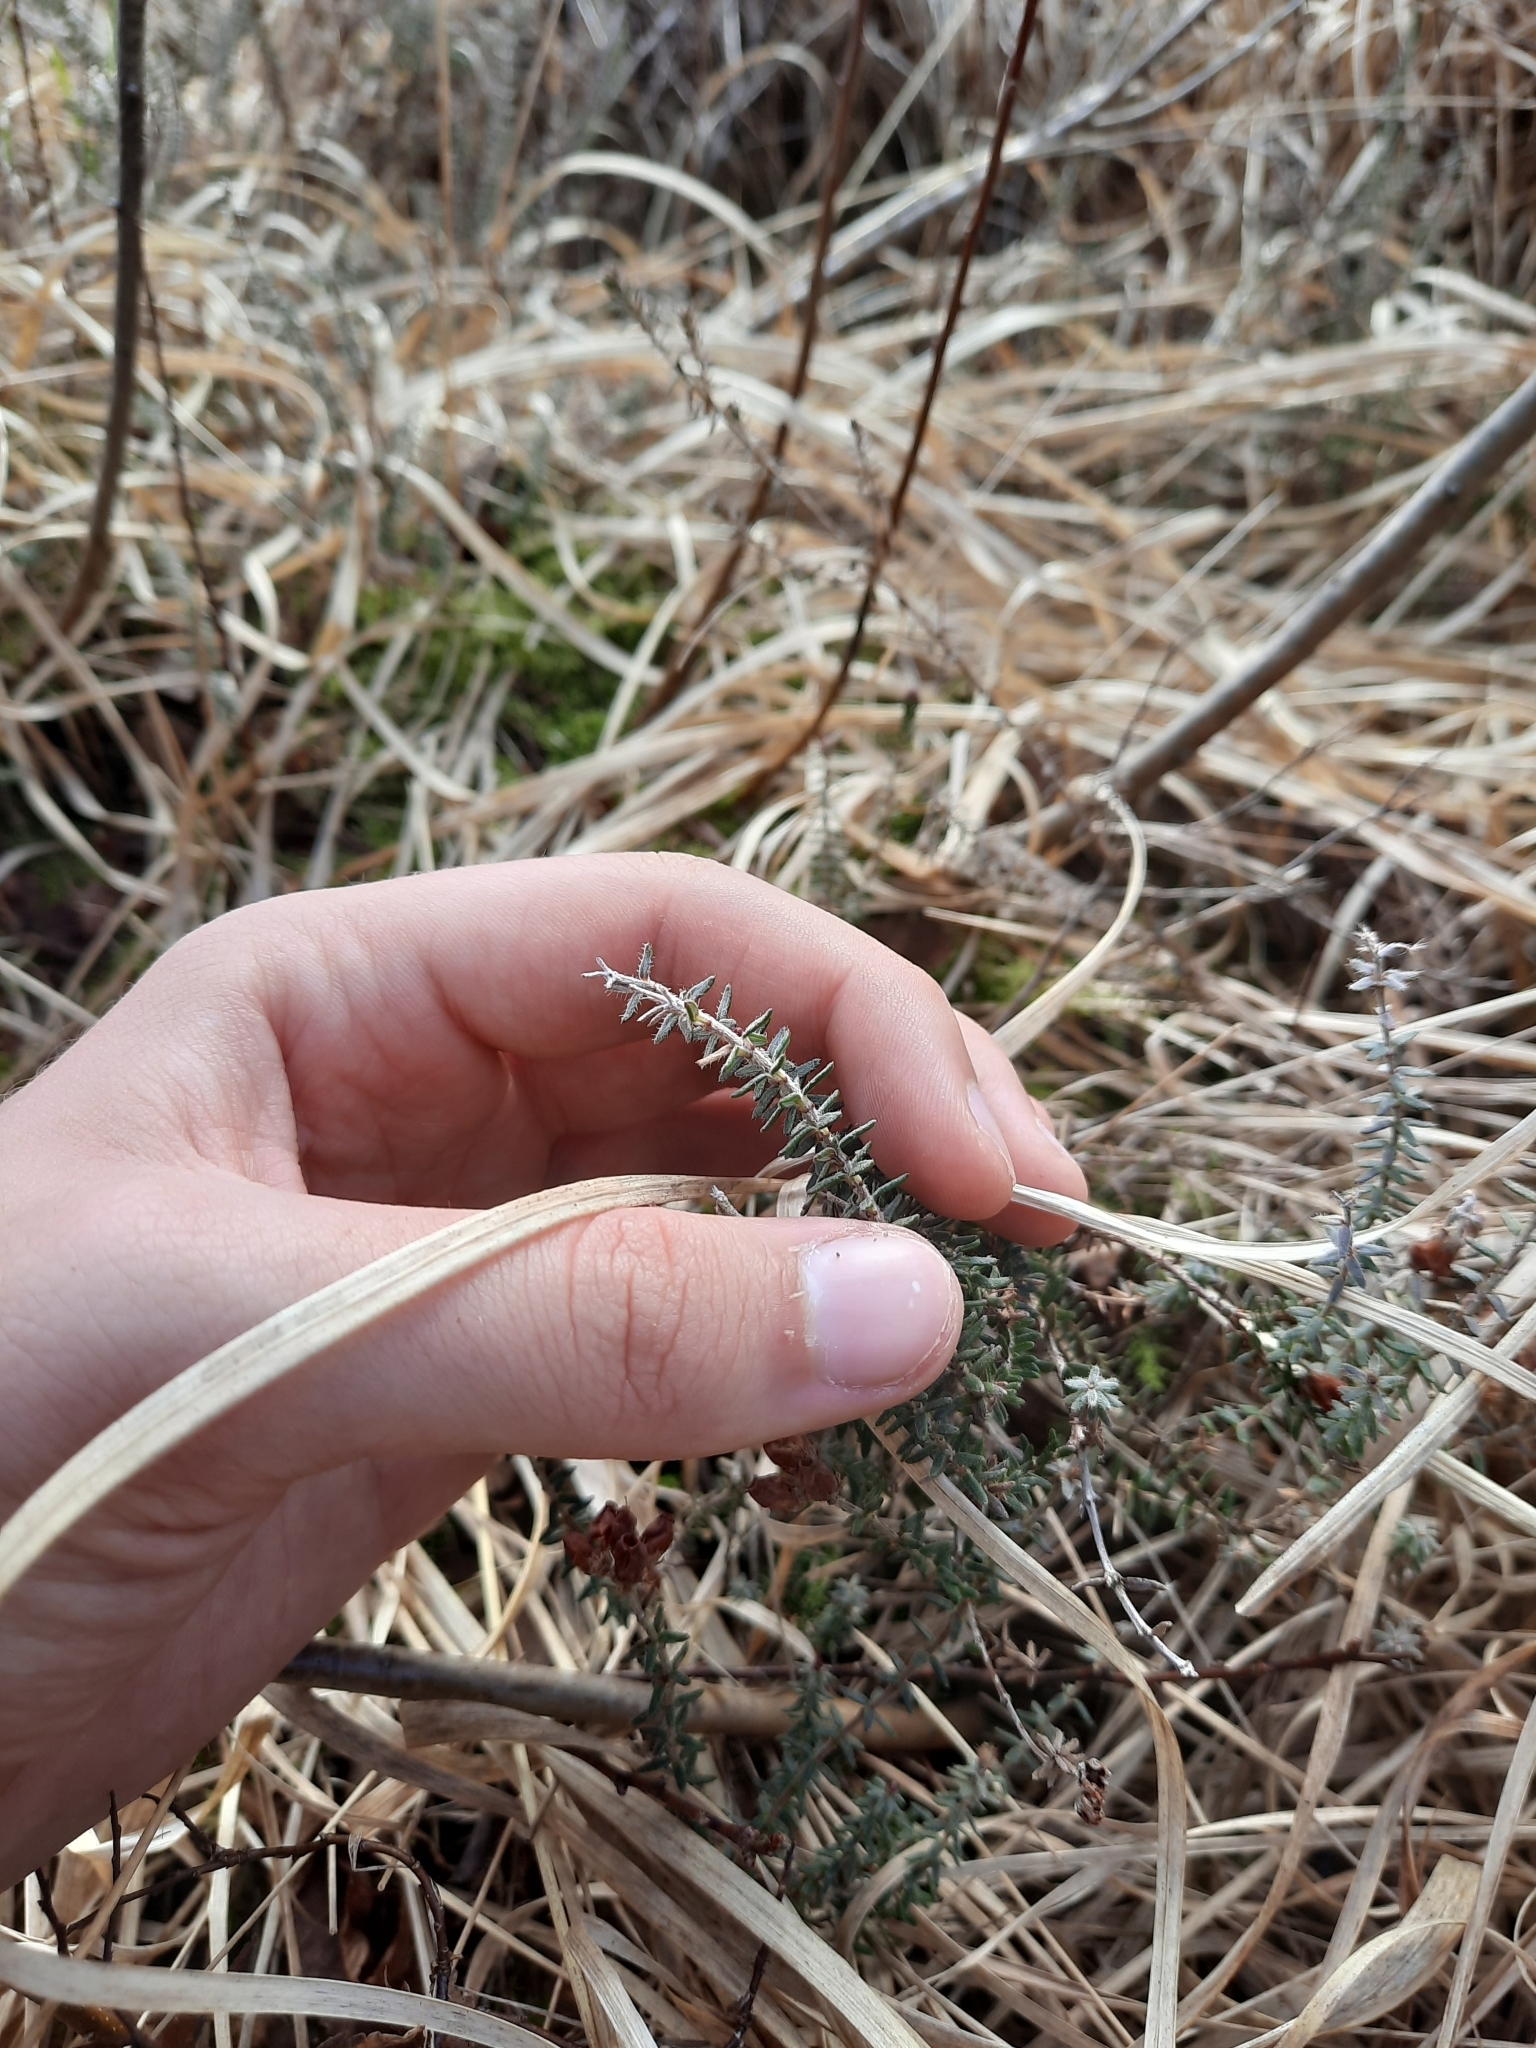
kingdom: Plantae
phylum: Tracheophyta
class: Magnoliopsida
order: Ericales
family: Ericaceae
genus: Erica
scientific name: Erica tetralix
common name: Cross-leaved heath
